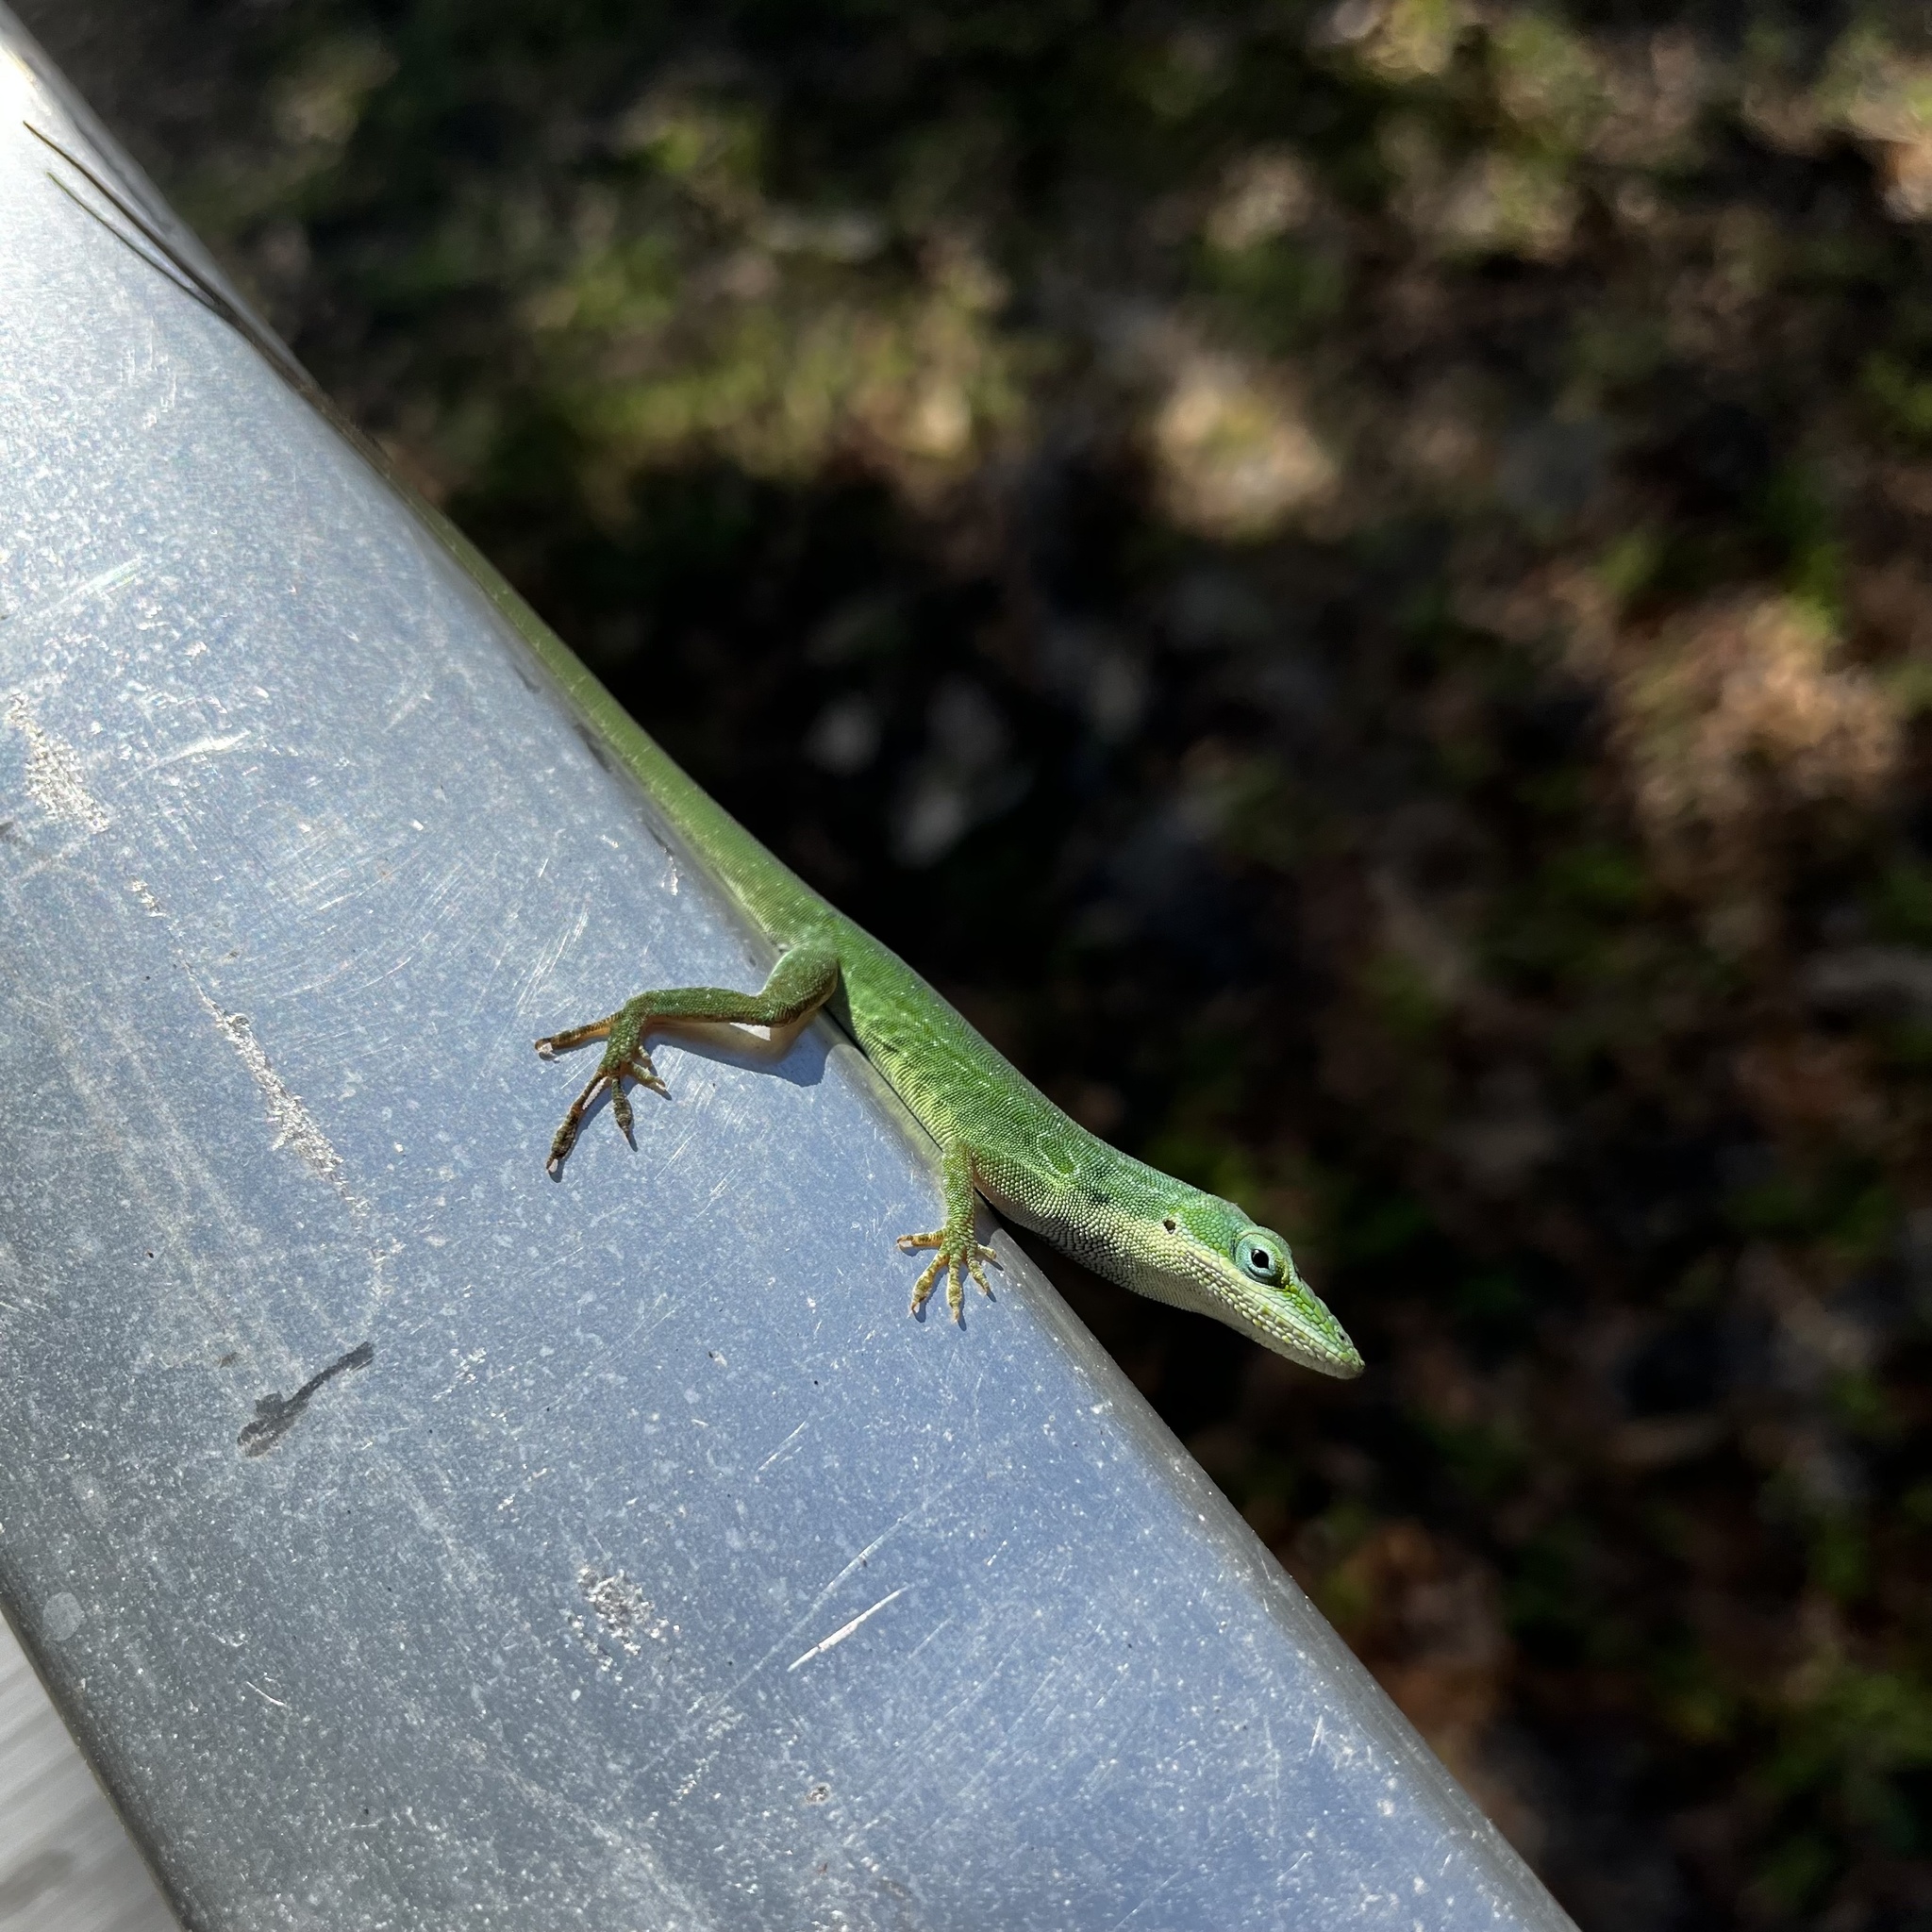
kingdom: Animalia
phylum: Chordata
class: Squamata
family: Dactyloidae
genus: Anolis
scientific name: Anolis carolinensis
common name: Green anole
